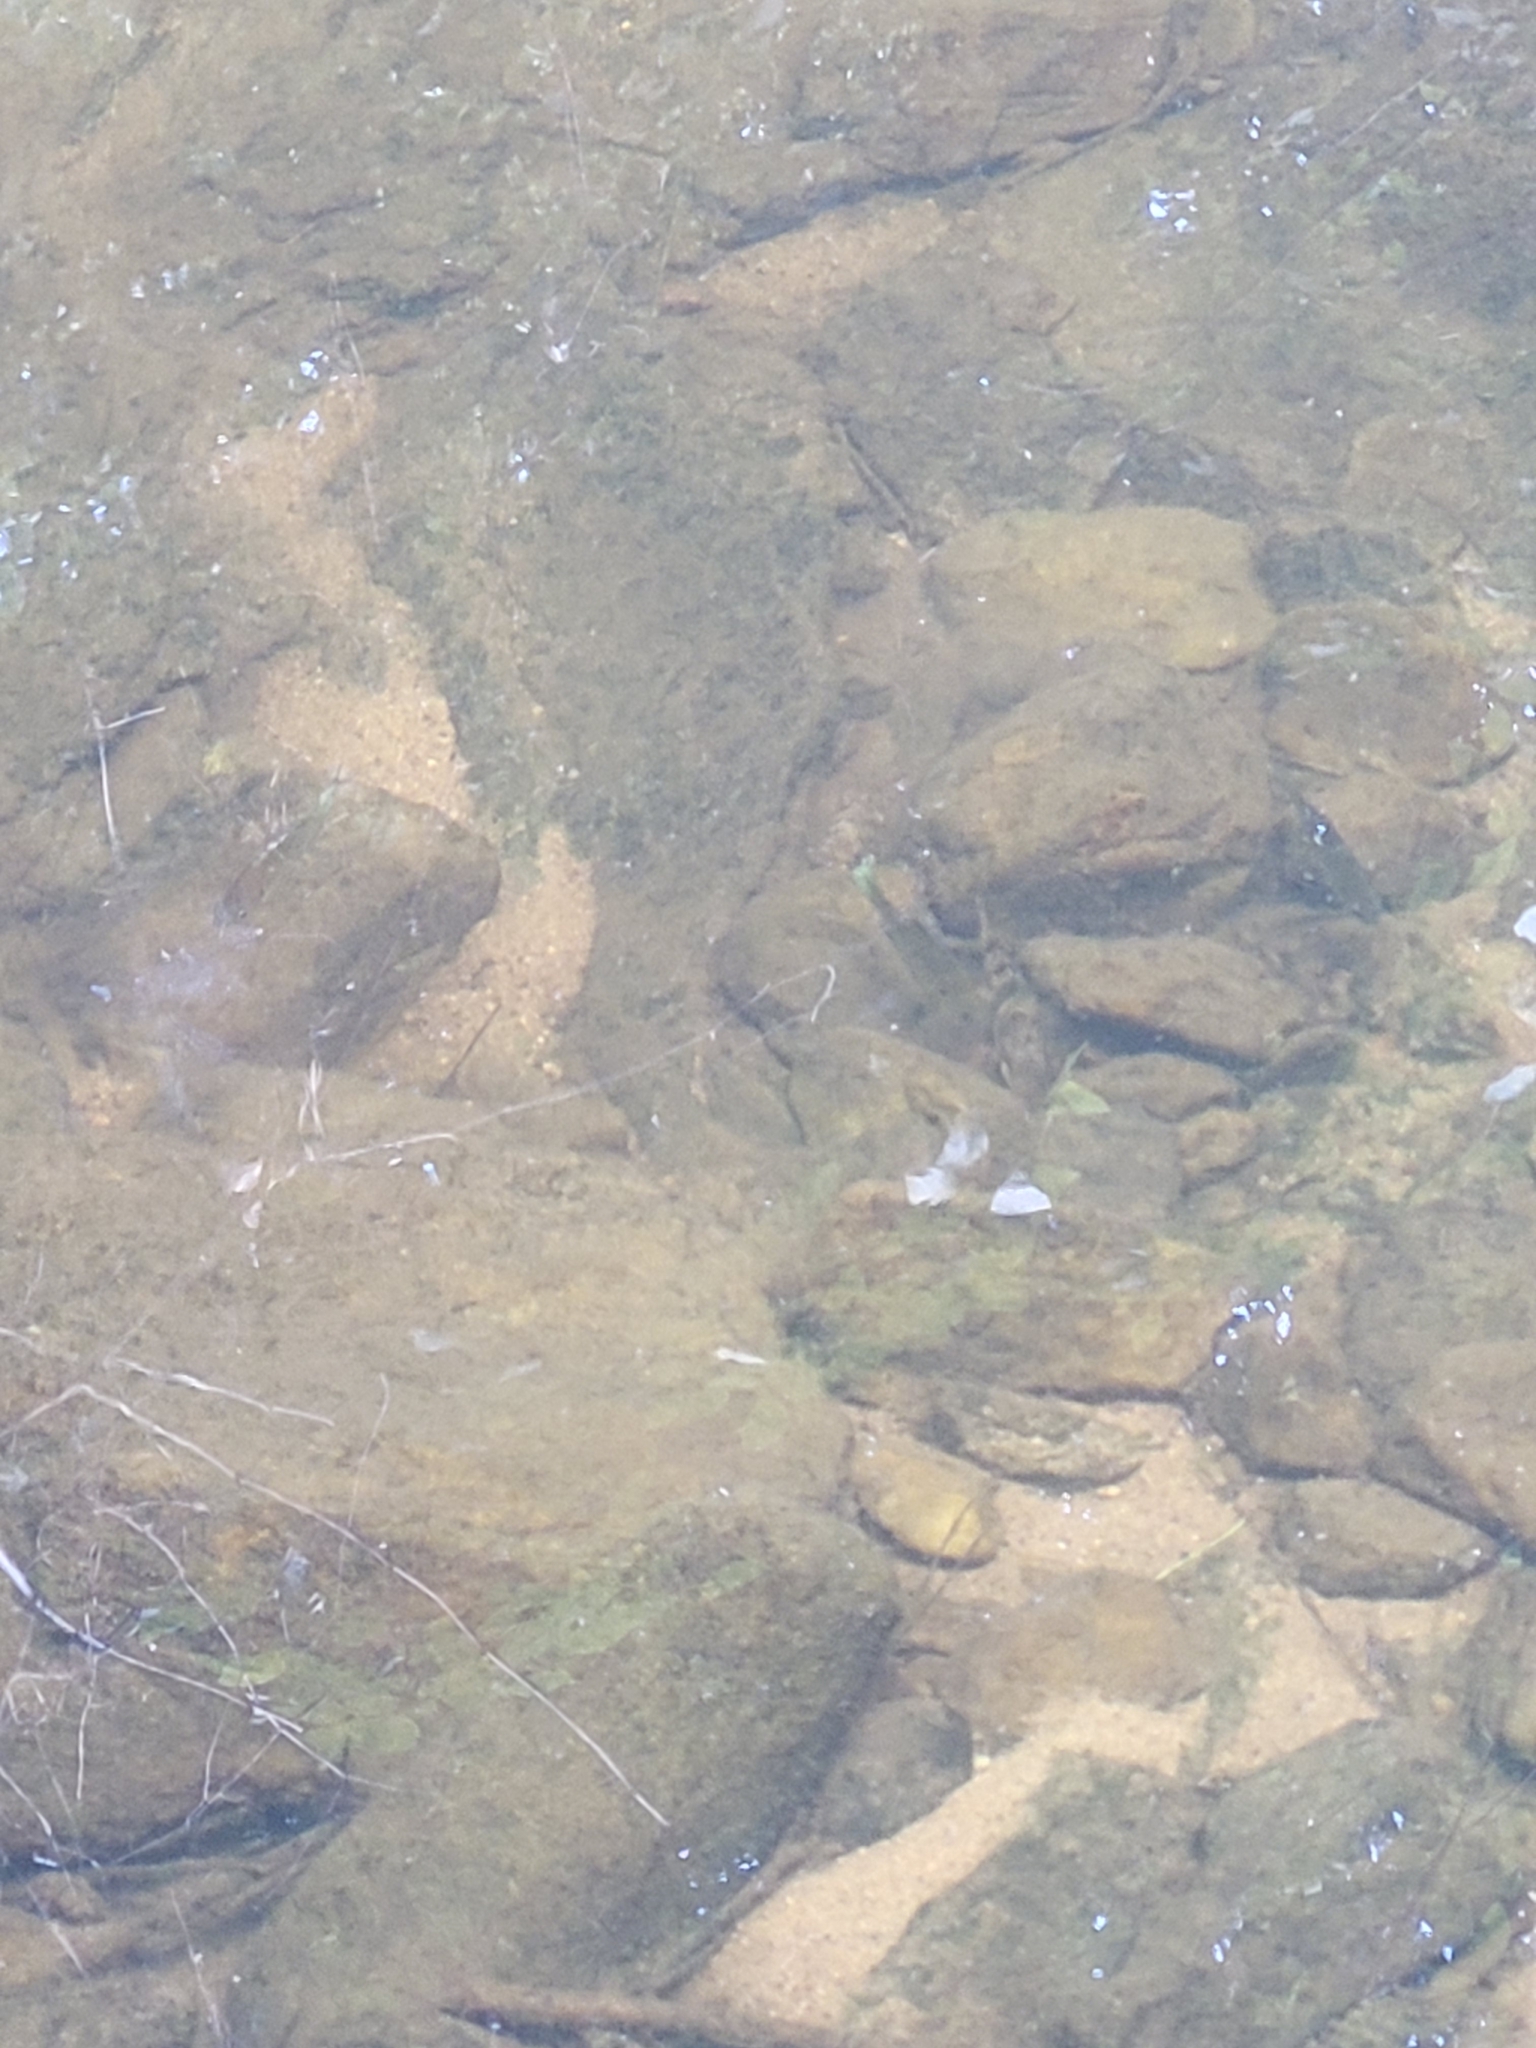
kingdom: Animalia
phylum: Chordata
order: Cypriniformes
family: Catostomidae
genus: Hypentelium
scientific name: Hypentelium nigricans
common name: Northern hog sucker
